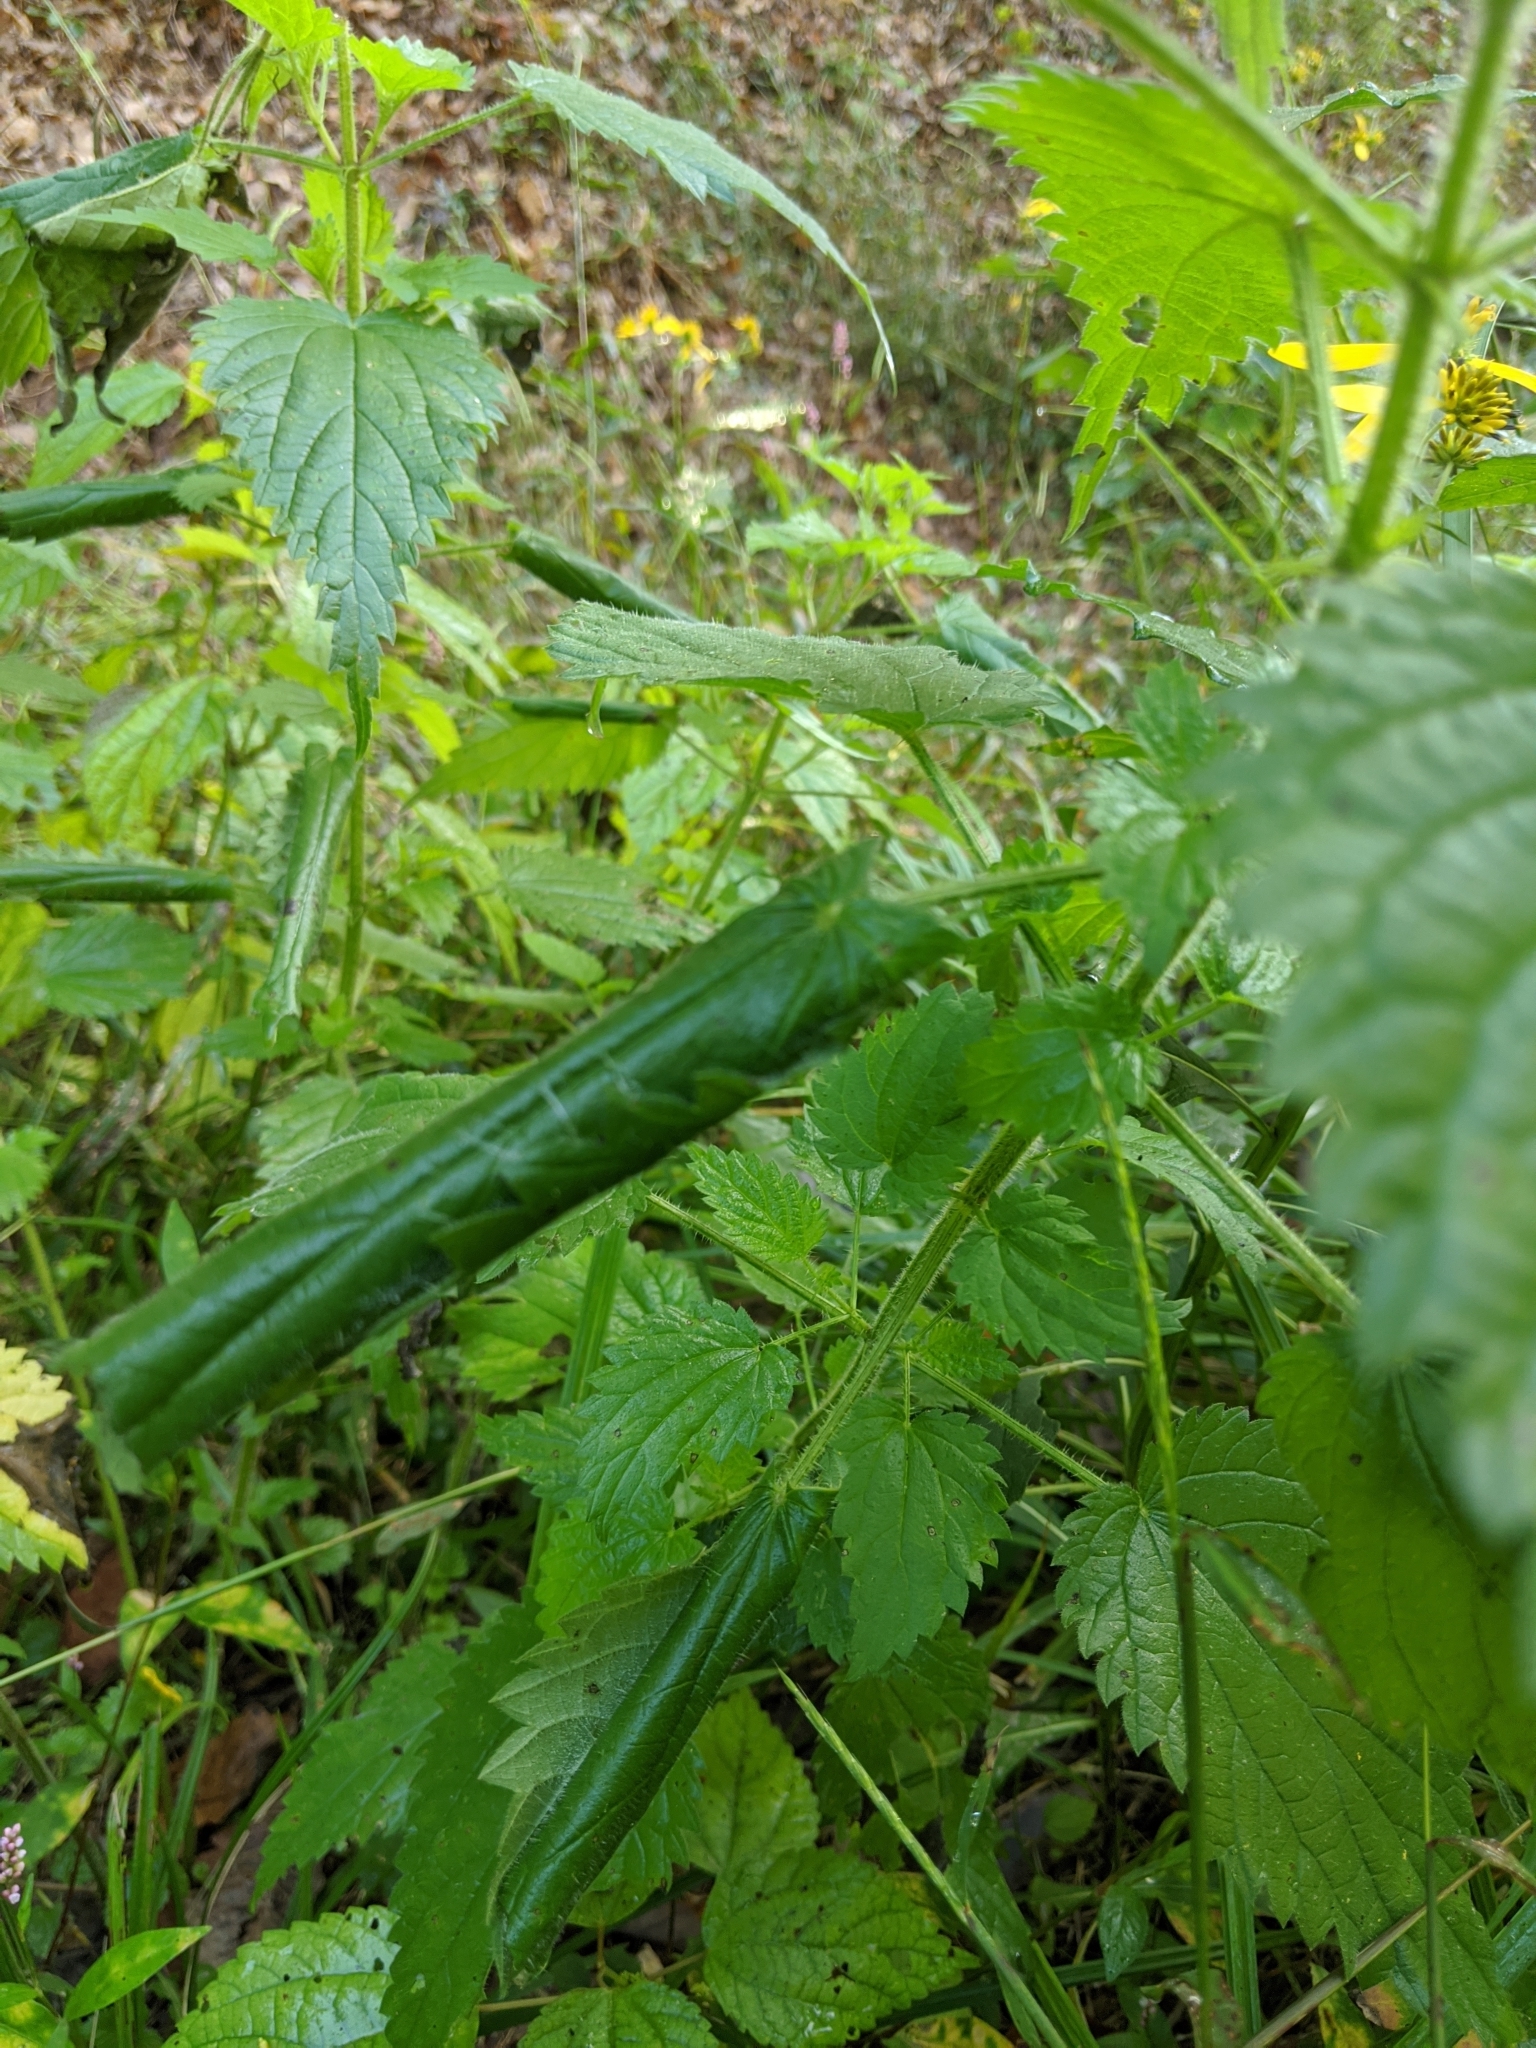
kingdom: Plantae
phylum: Tracheophyta
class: Magnoliopsida
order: Rosales
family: Urticaceae
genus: Urtica
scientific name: Urtica dioica
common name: Common nettle
